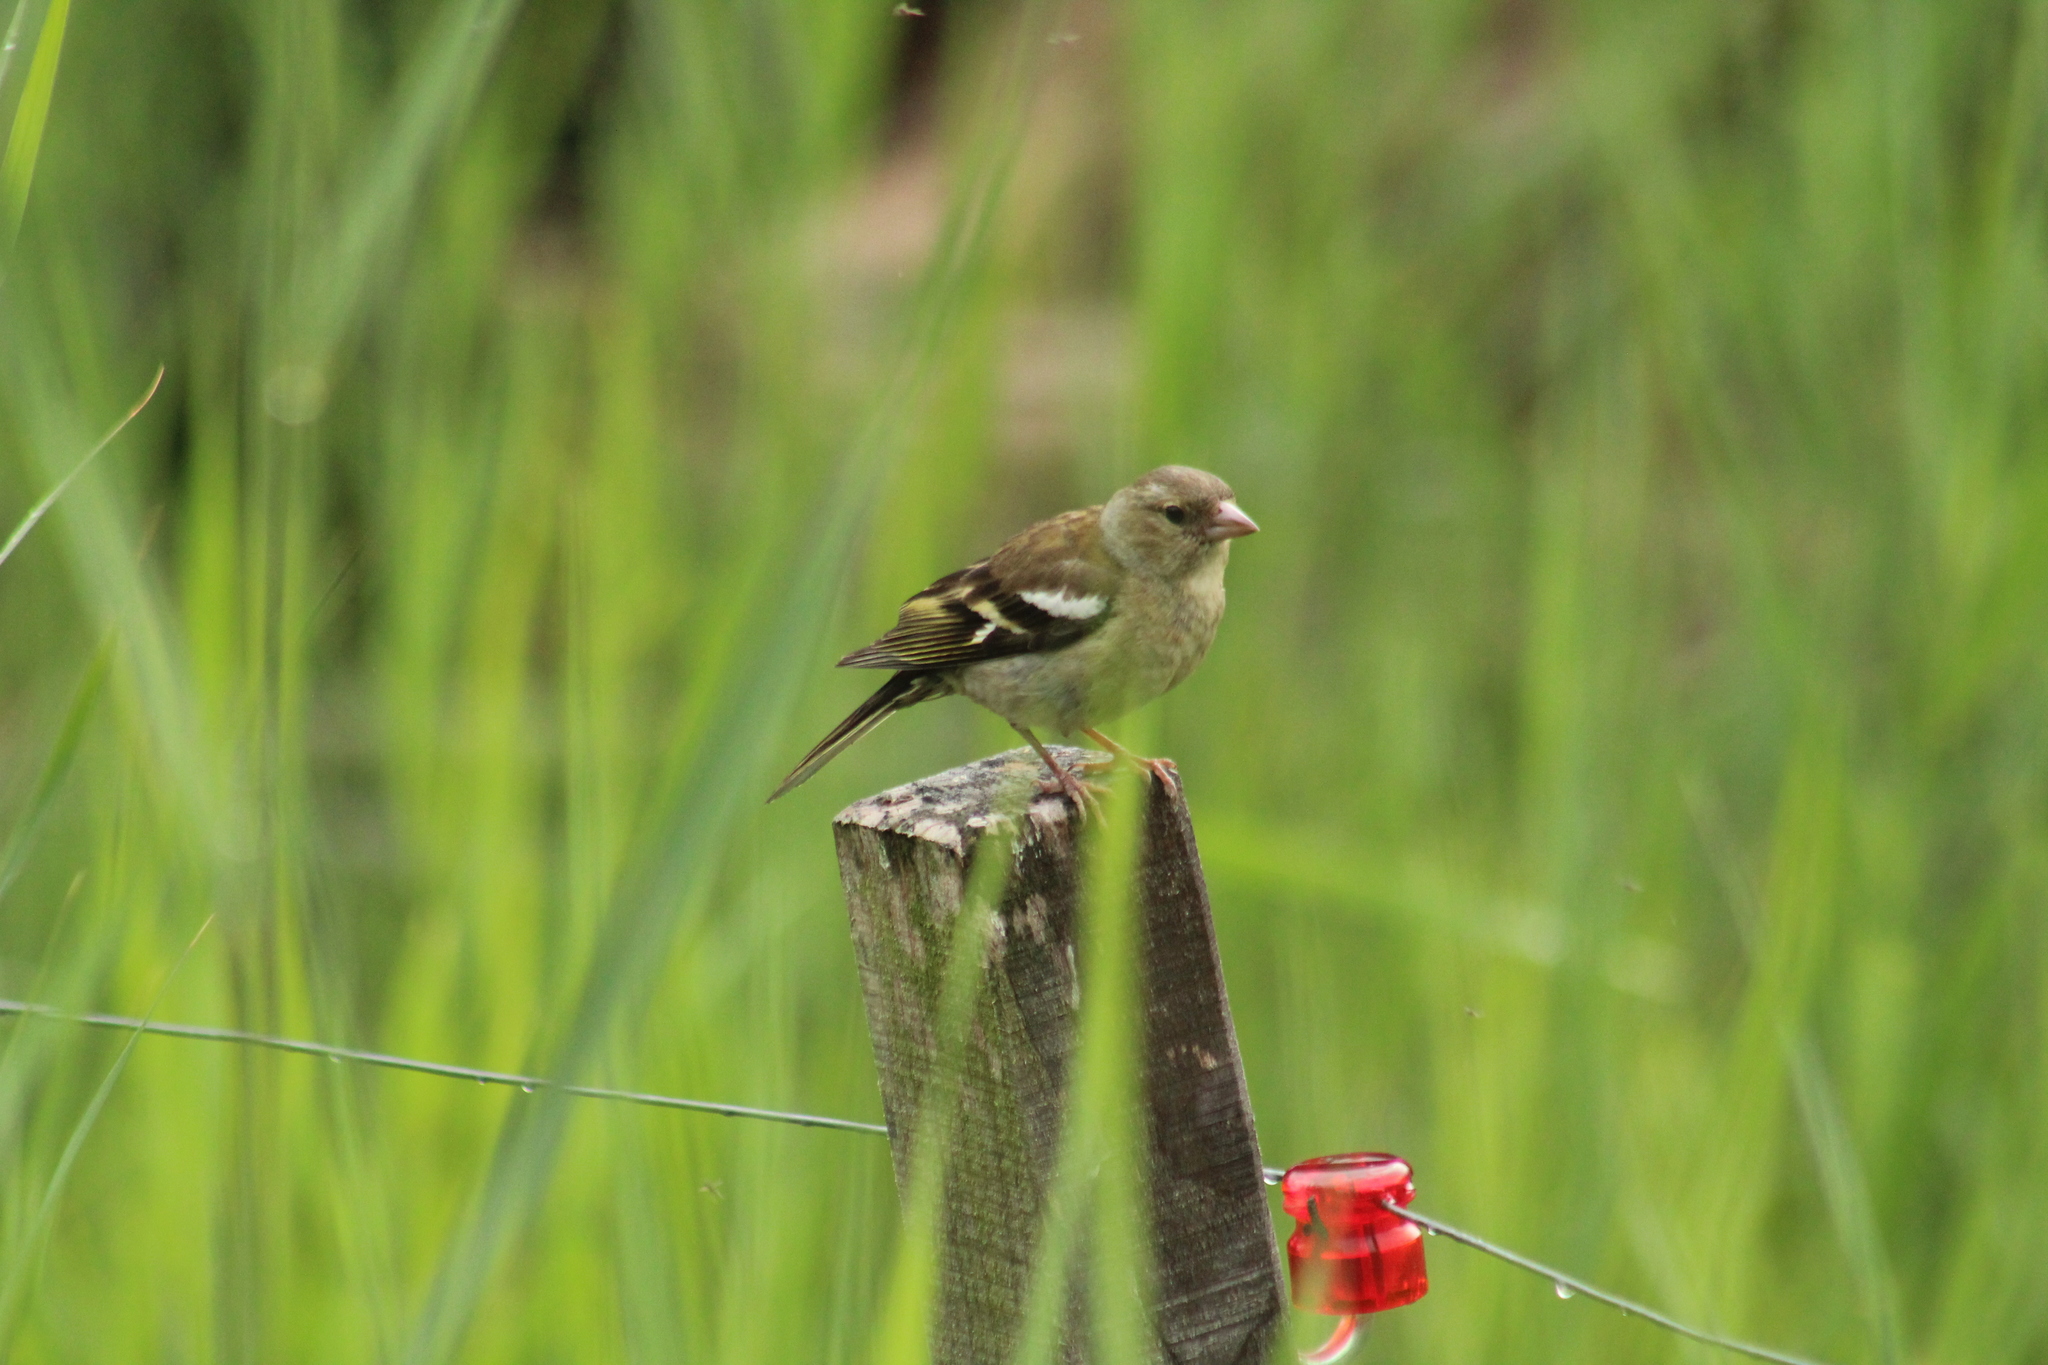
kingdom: Animalia
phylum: Chordata
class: Aves
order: Passeriformes
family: Fringillidae
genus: Fringilla
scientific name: Fringilla coelebs
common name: Common chaffinch
